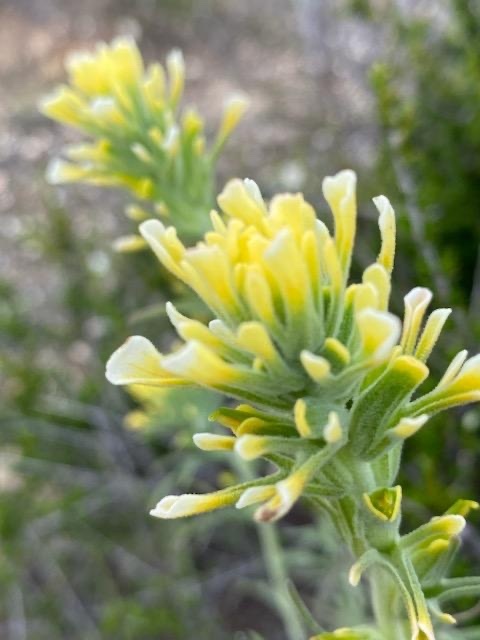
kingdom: Plantae
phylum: Tracheophyta
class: Magnoliopsida
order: Lamiales
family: Orobanchaceae
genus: Castilleja
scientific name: Castilleja foliolosa
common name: Woolly indian paintbrush
